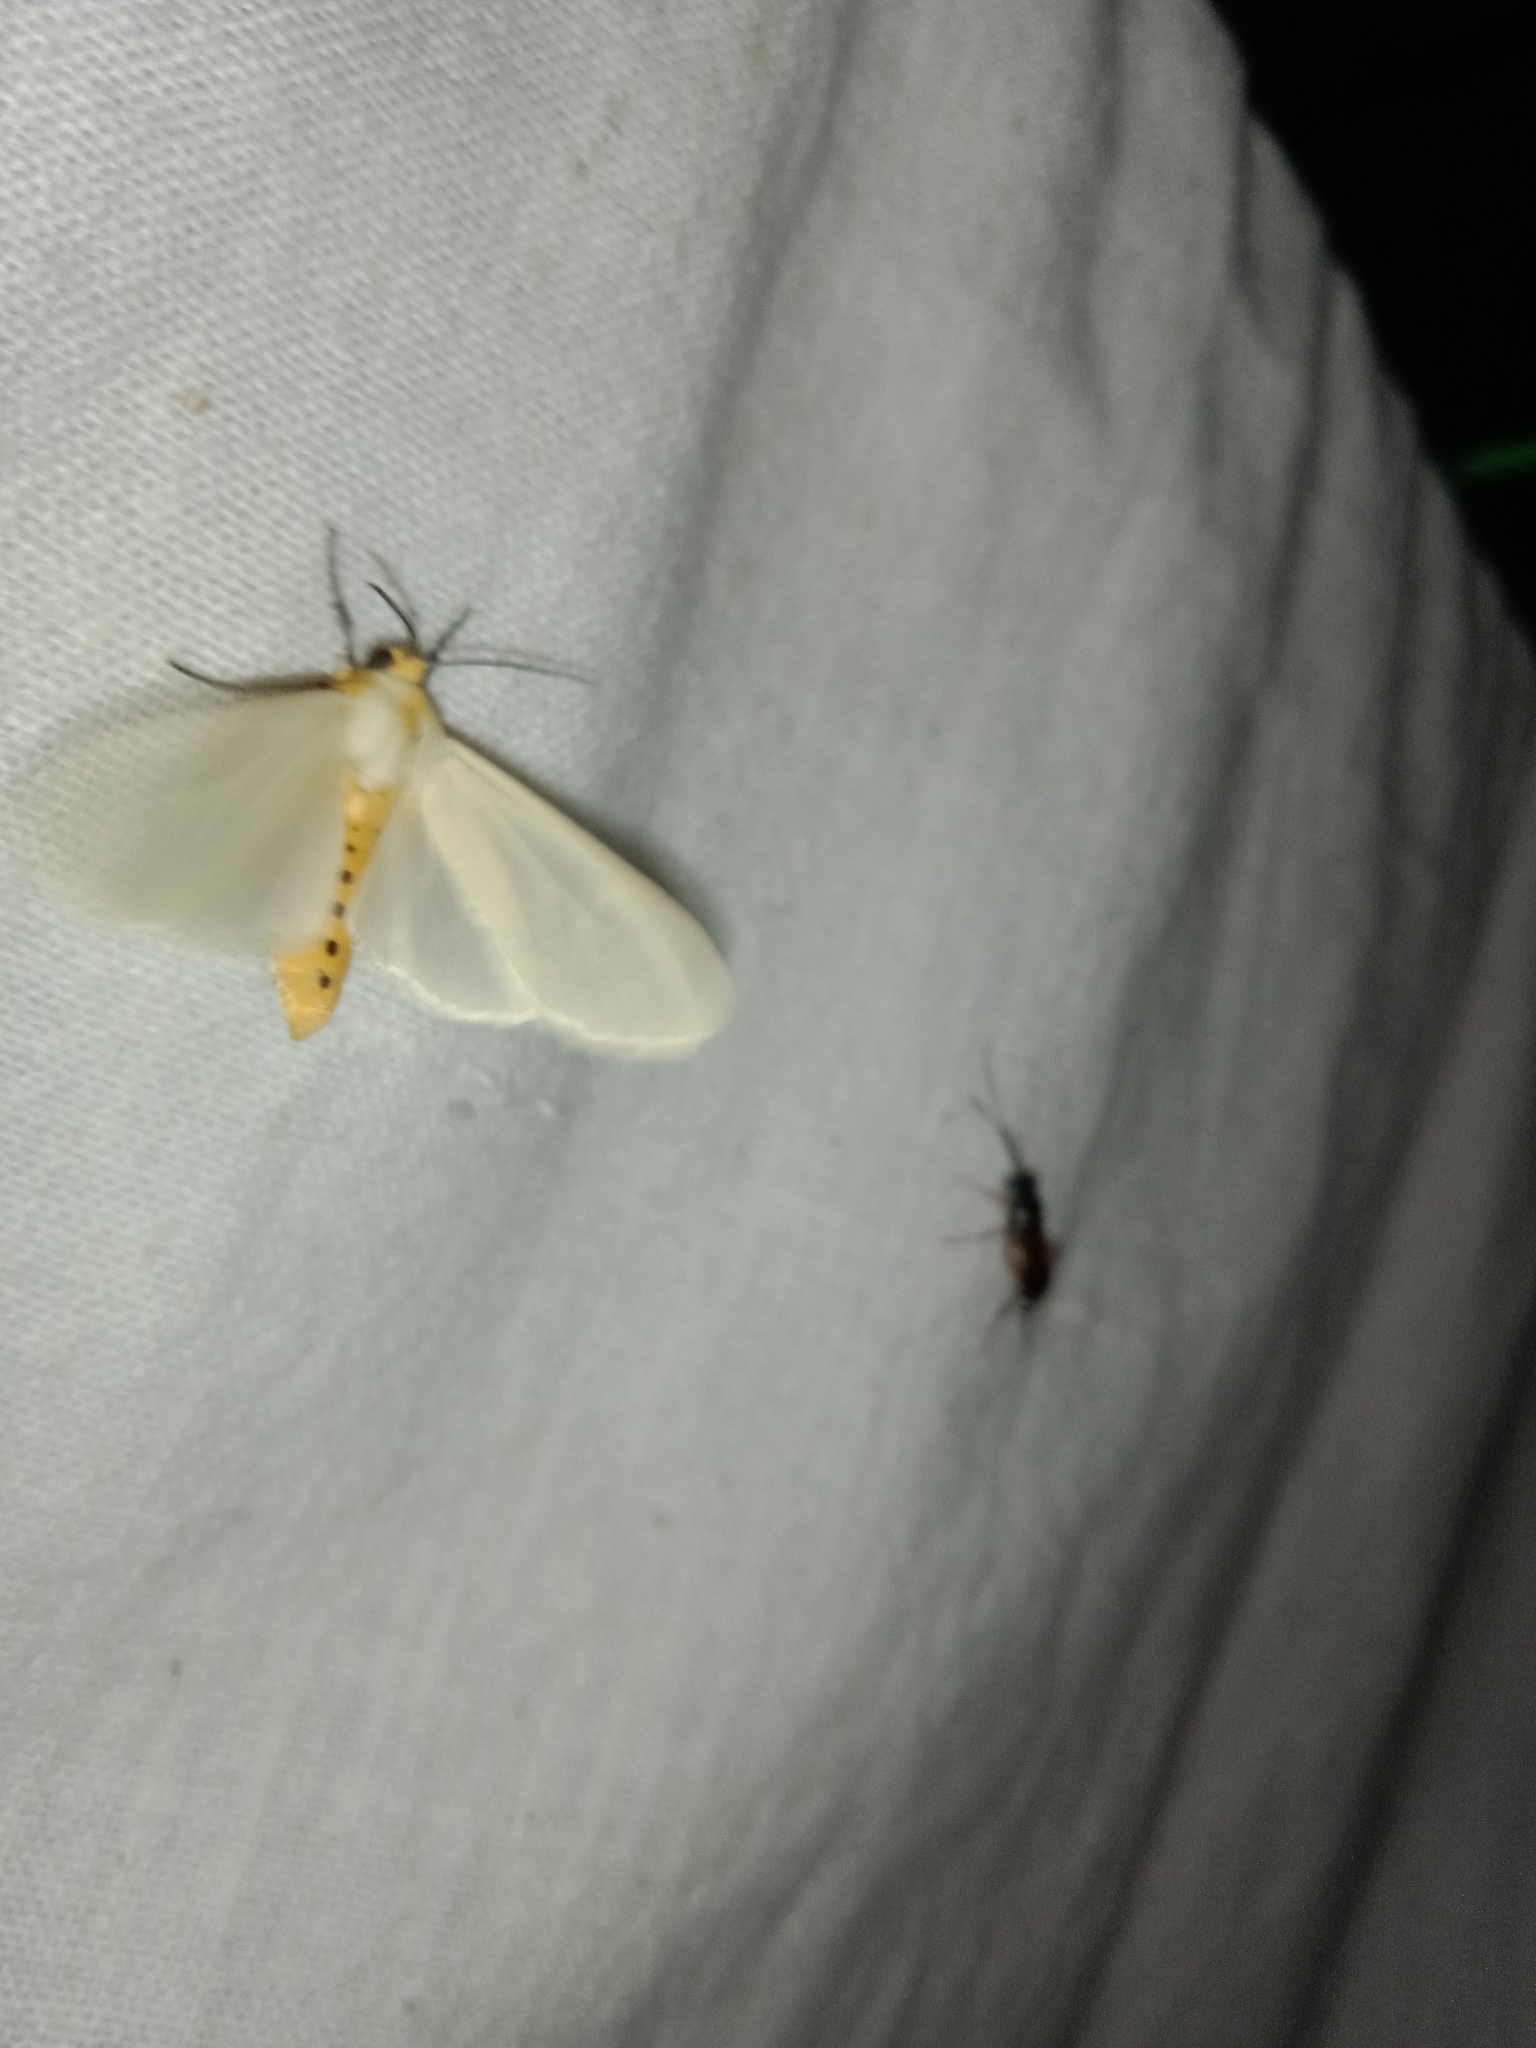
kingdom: Animalia
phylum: Arthropoda
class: Insecta
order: Lepidoptera
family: Erebidae
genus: Pareuchaetes
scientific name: Pareuchaetes pseudoinsulata
